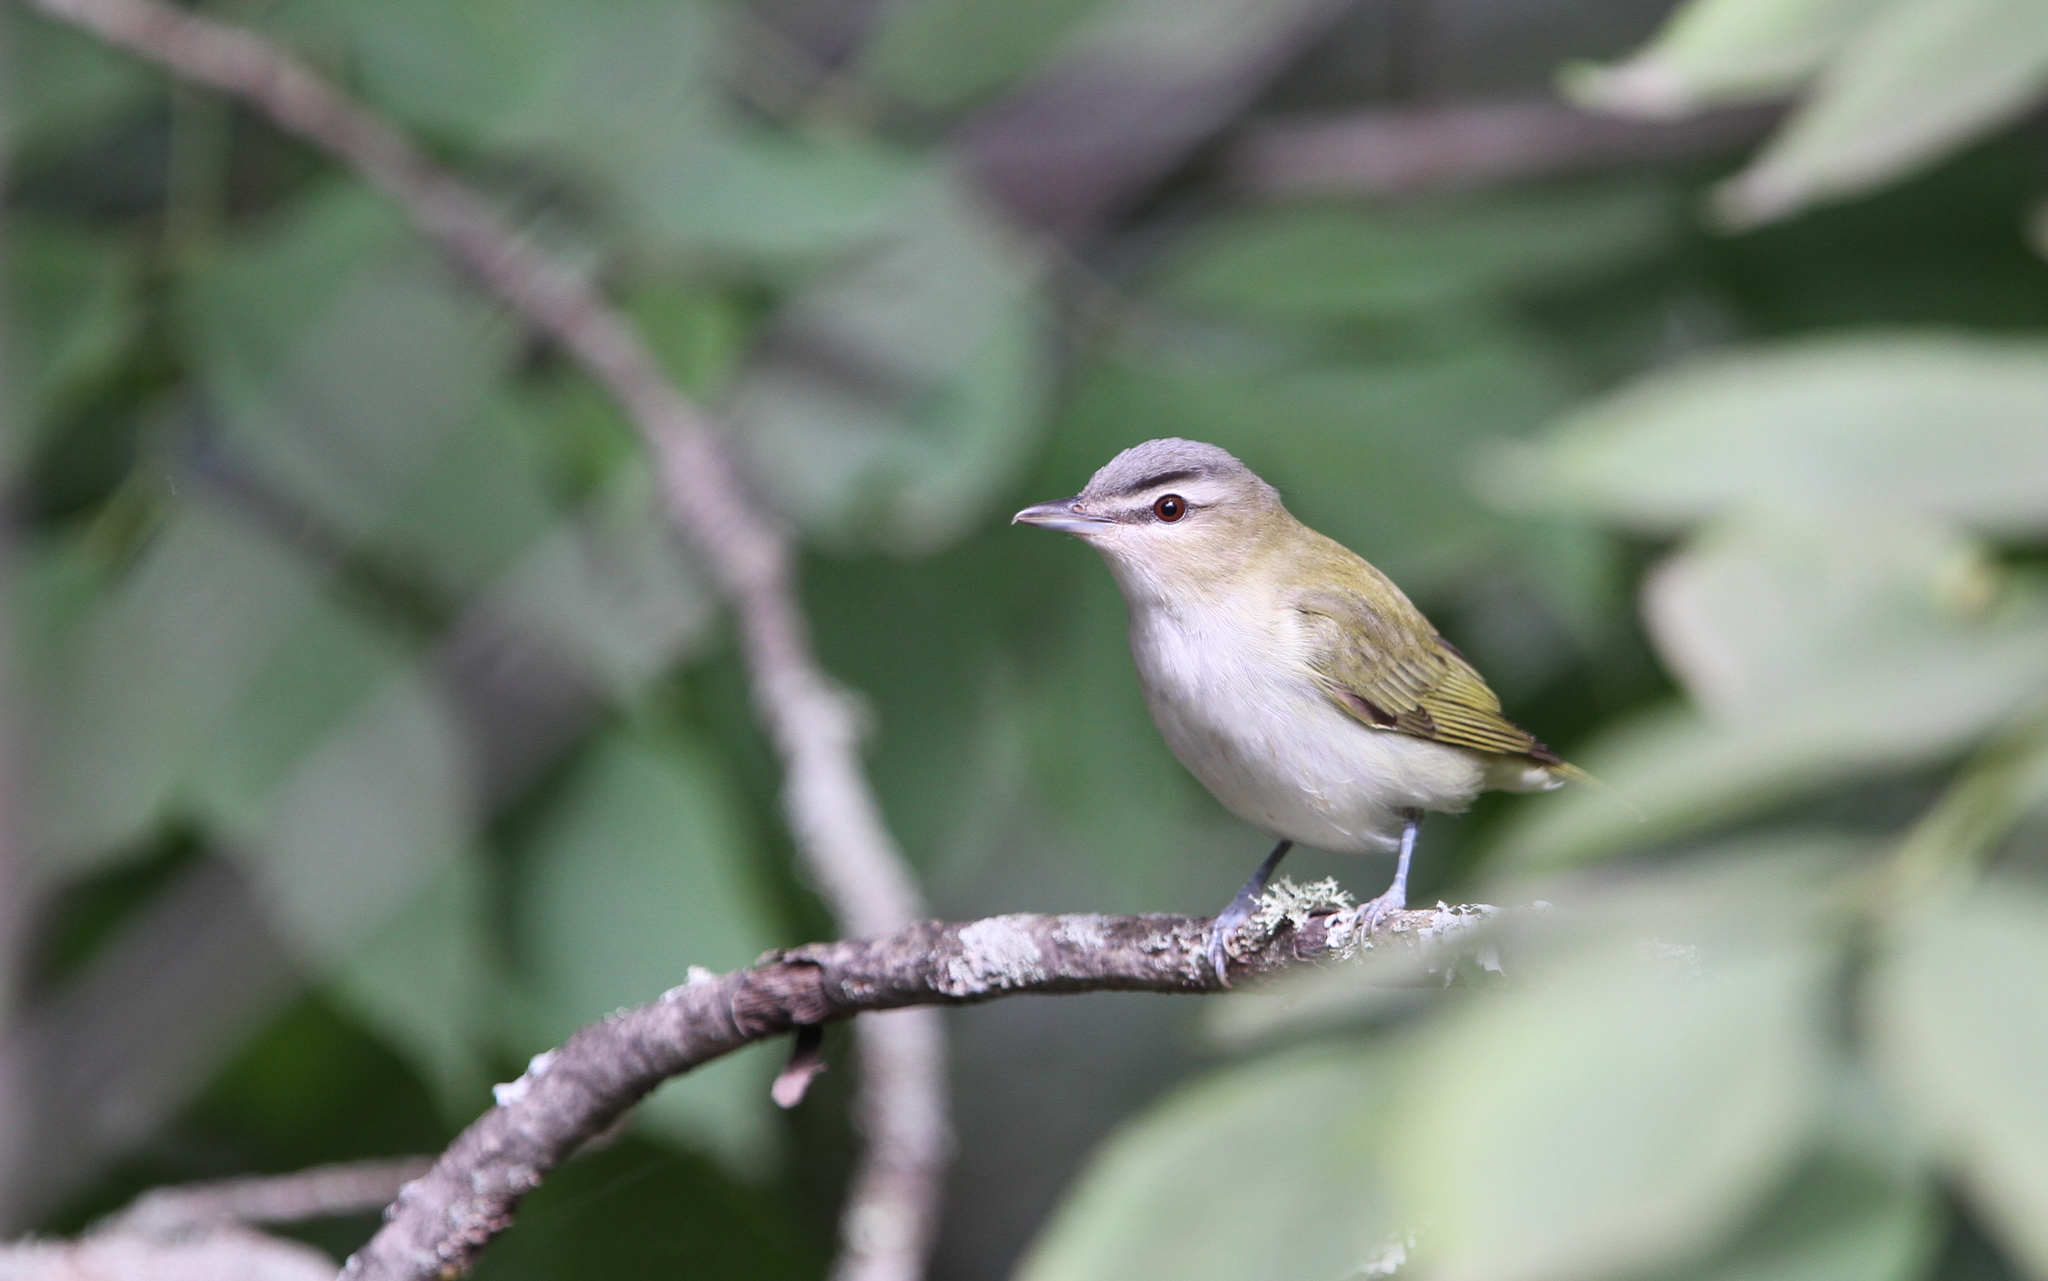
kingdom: Animalia
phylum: Chordata
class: Aves
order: Passeriformes
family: Vireonidae
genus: Vireo
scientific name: Vireo olivaceus
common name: Red-eyed vireo
